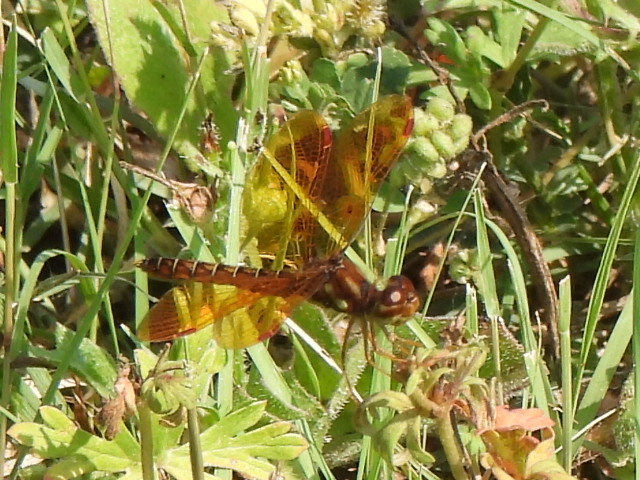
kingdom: Animalia
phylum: Arthropoda
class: Insecta
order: Odonata
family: Libellulidae
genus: Perithemis
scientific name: Perithemis tenera
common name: Eastern amberwing
